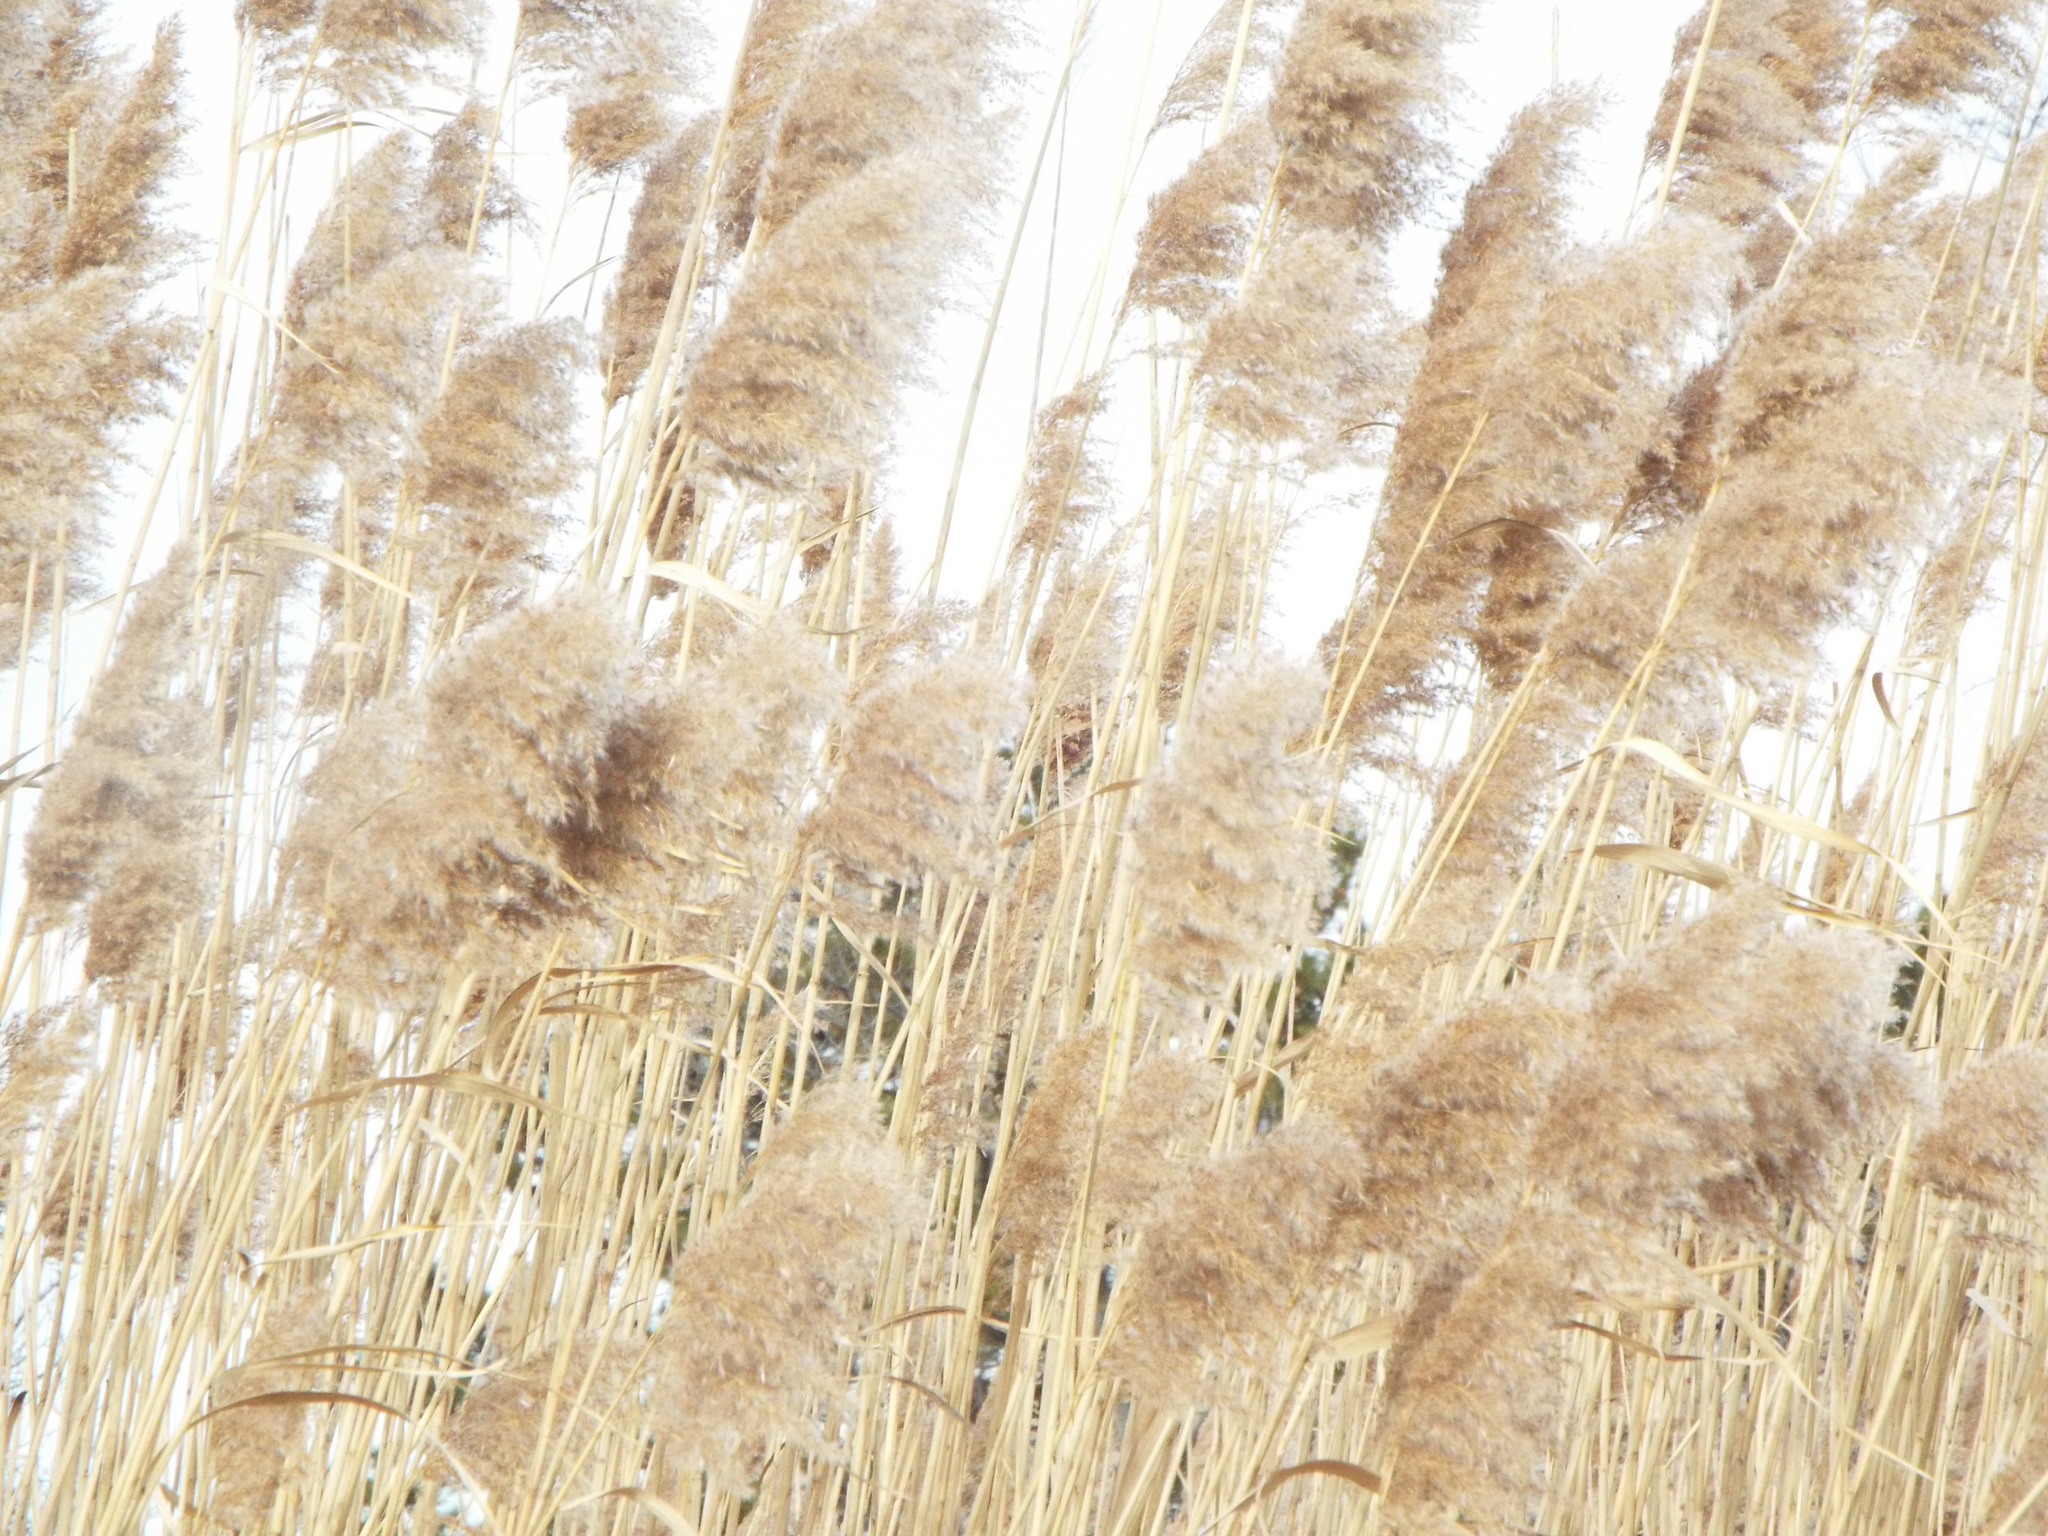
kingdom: Plantae
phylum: Tracheophyta
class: Liliopsida
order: Poales
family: Poaceae
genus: Phragmites
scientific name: Phragmites australis
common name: Common reed
